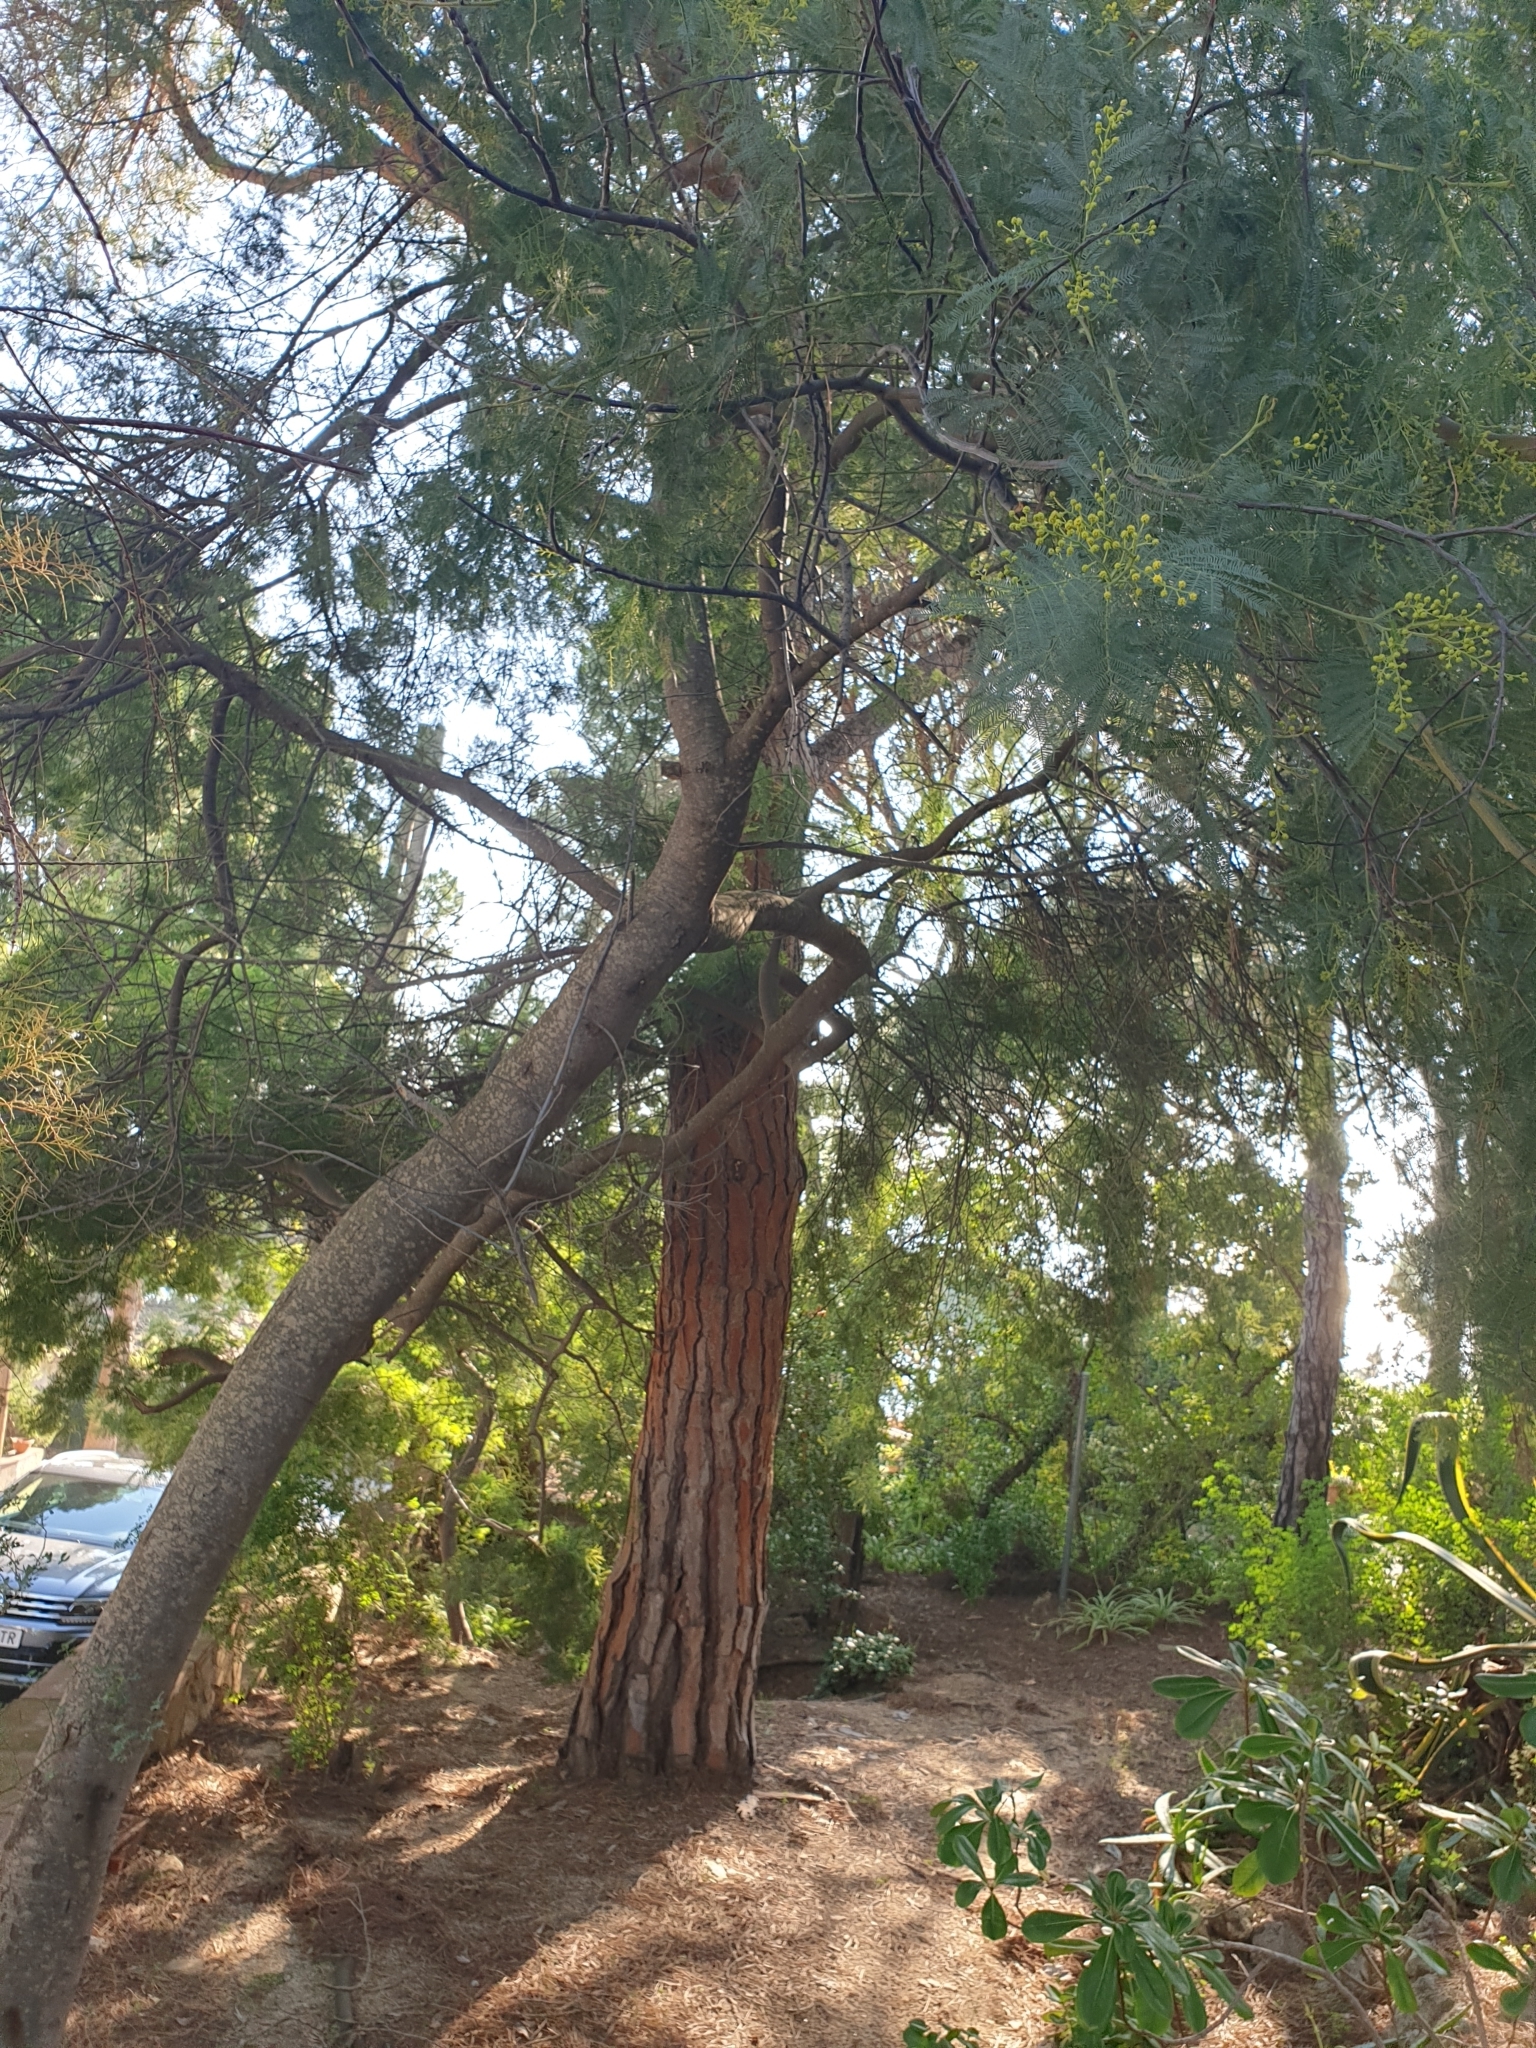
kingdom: Plantae
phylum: Tracheophyta
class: Magnoliopsida
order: Fabales
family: Fabaceae
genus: Acacia
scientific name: Acacia dealbata
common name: Silver wattle
